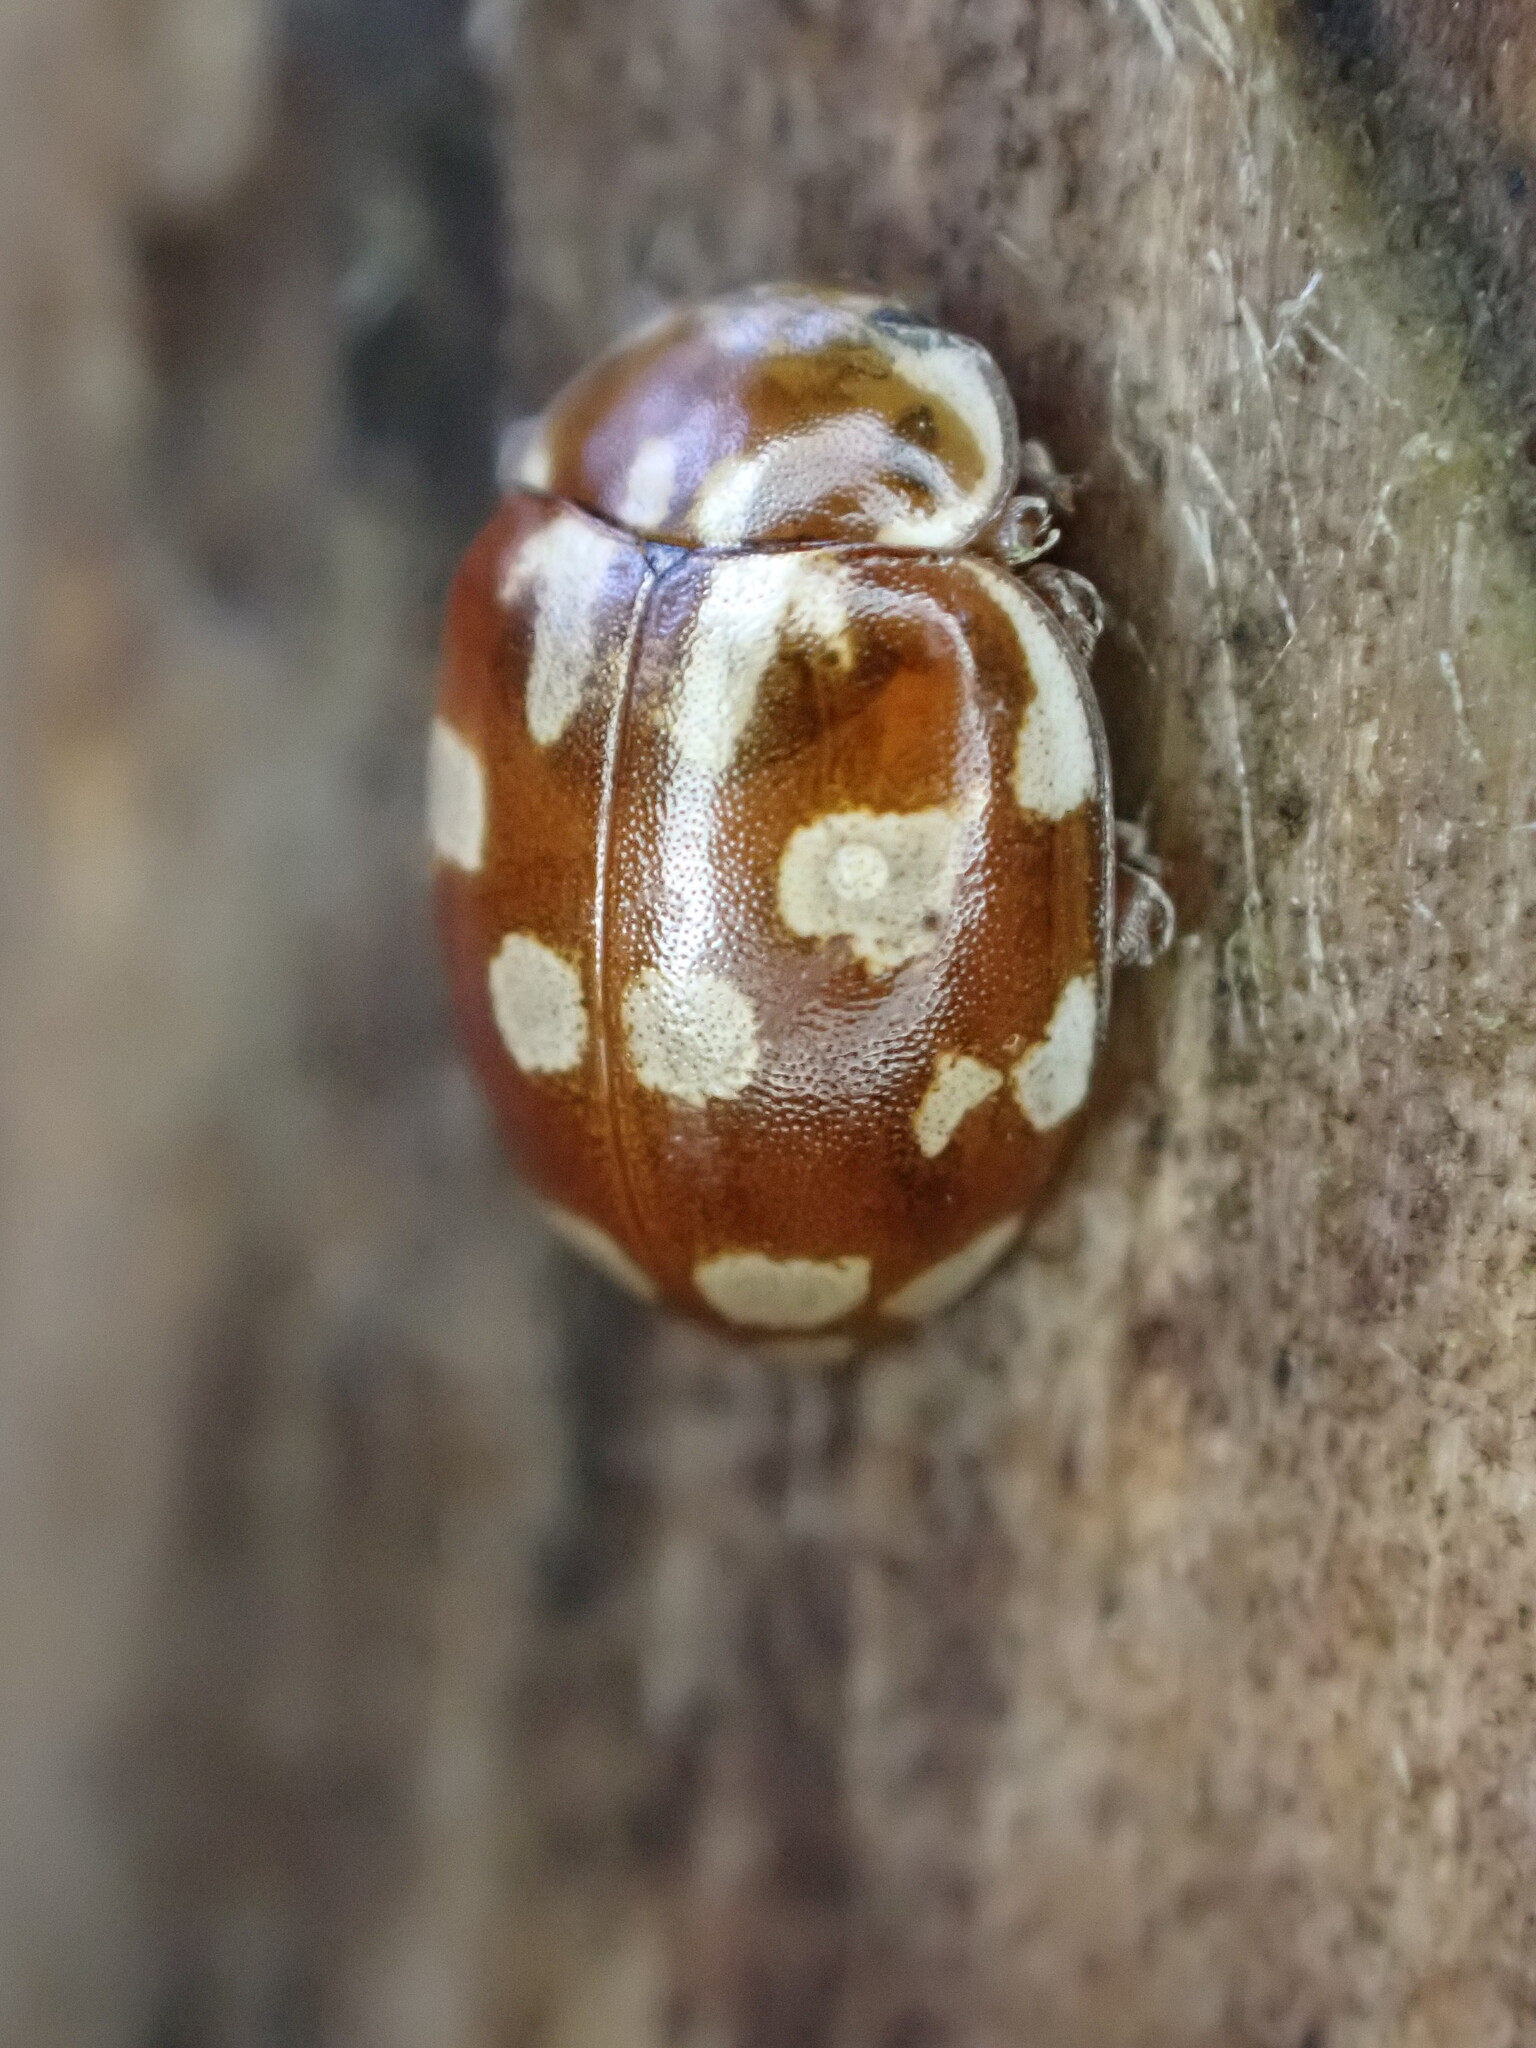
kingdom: Animalia
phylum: Arthropoda
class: Insecta
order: Coleoptera
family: Coccinellidae
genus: Myrrha
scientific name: Myrrha octodecimguttata
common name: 18-spot ladybird
